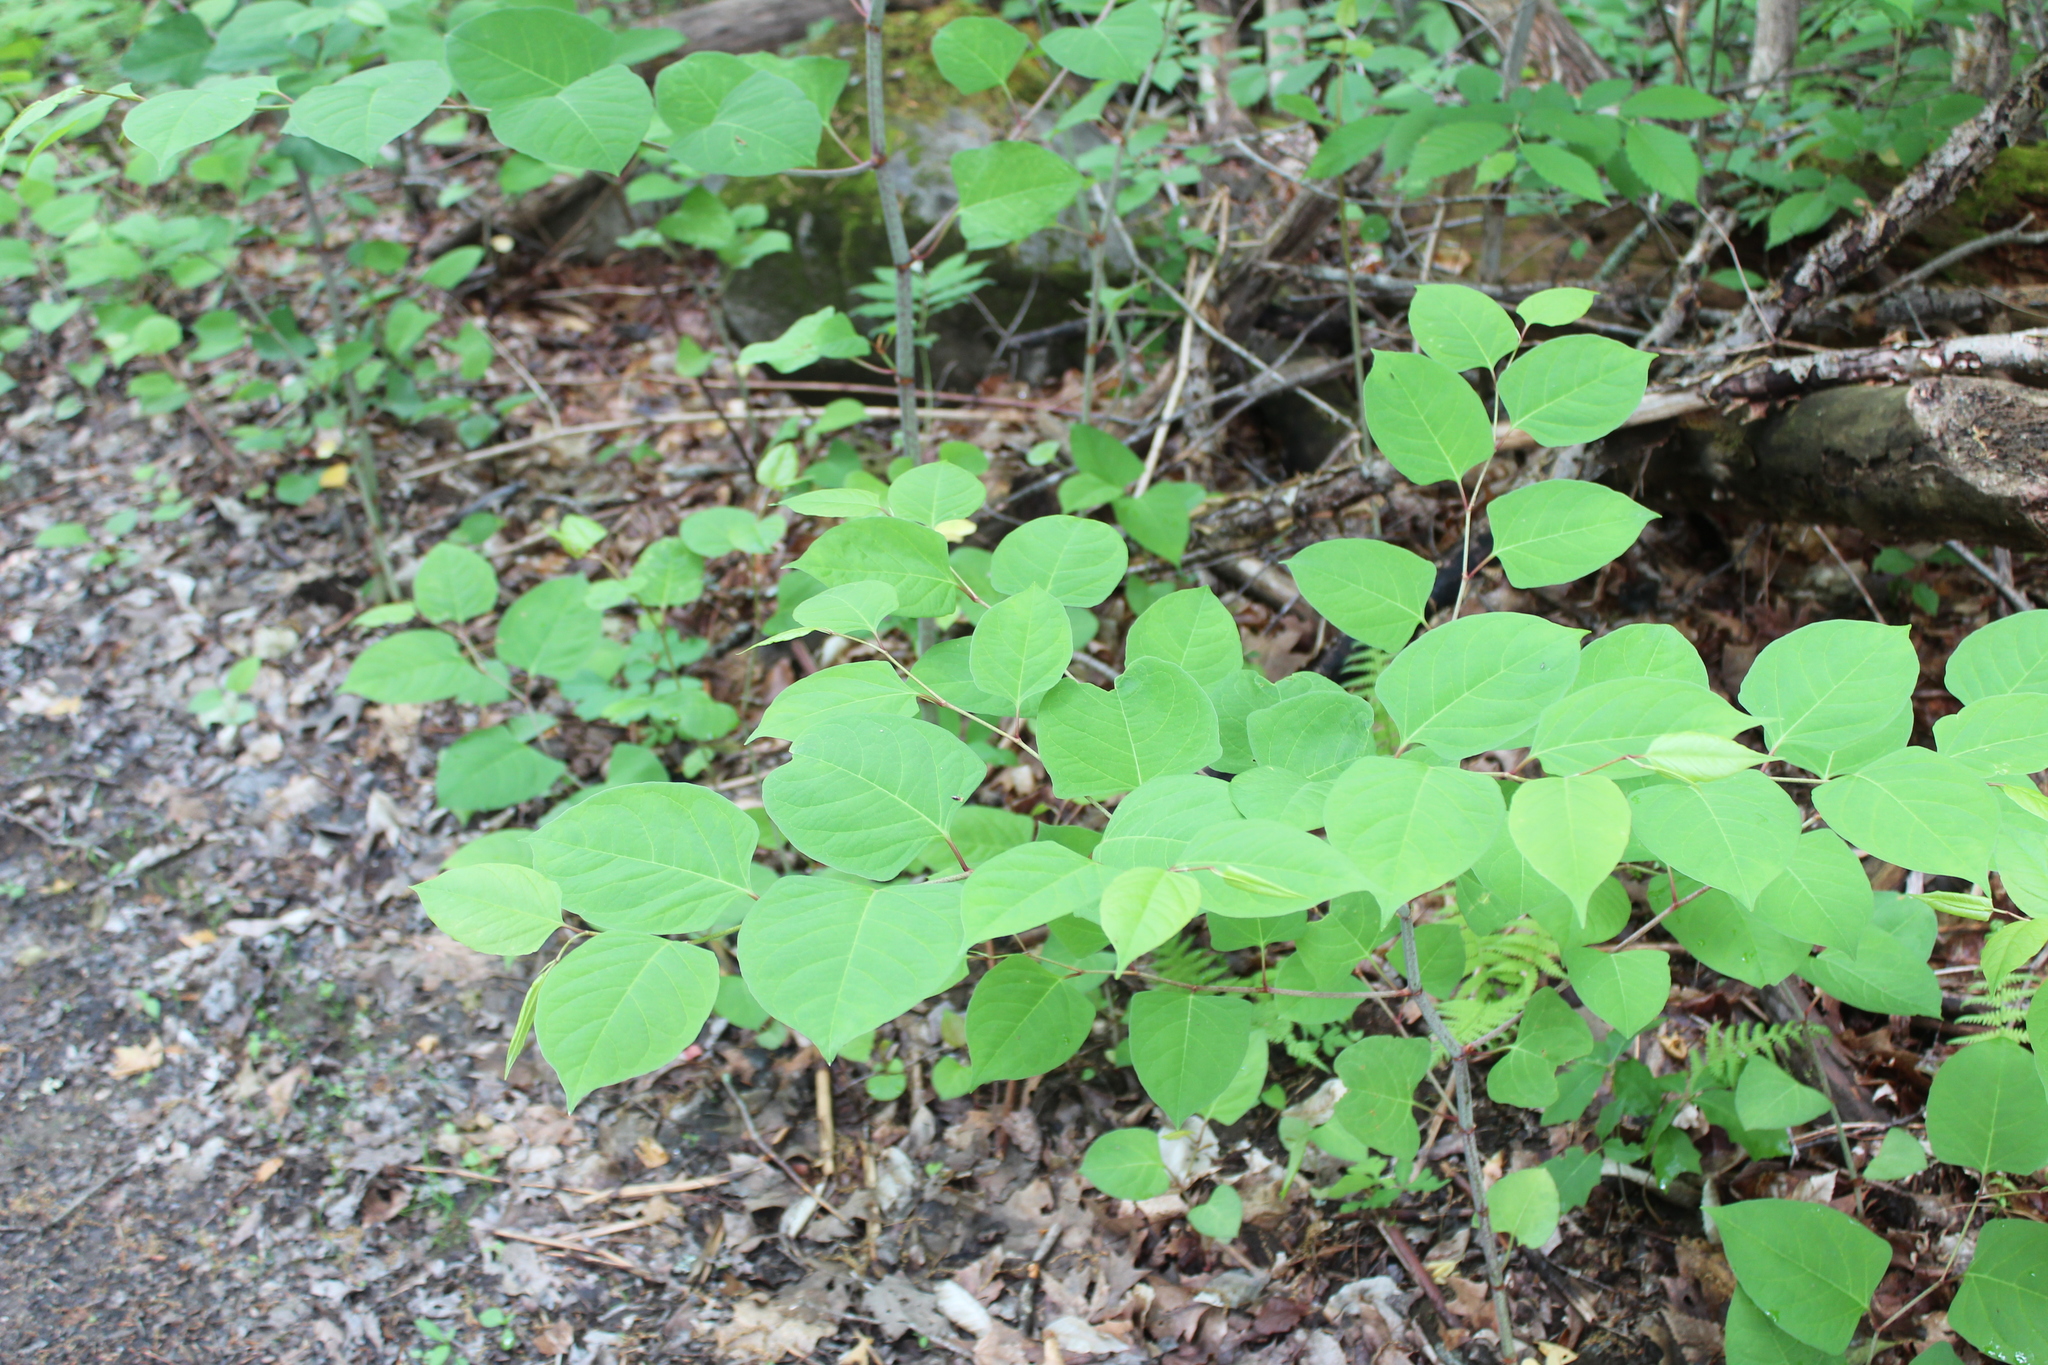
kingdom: Plantae
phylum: Tracheophyta
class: Magnoliopsida
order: Caryophyllales
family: Polygonaceae
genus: Reynoutria
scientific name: Reynoutria japonica
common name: Japanese knotweed
